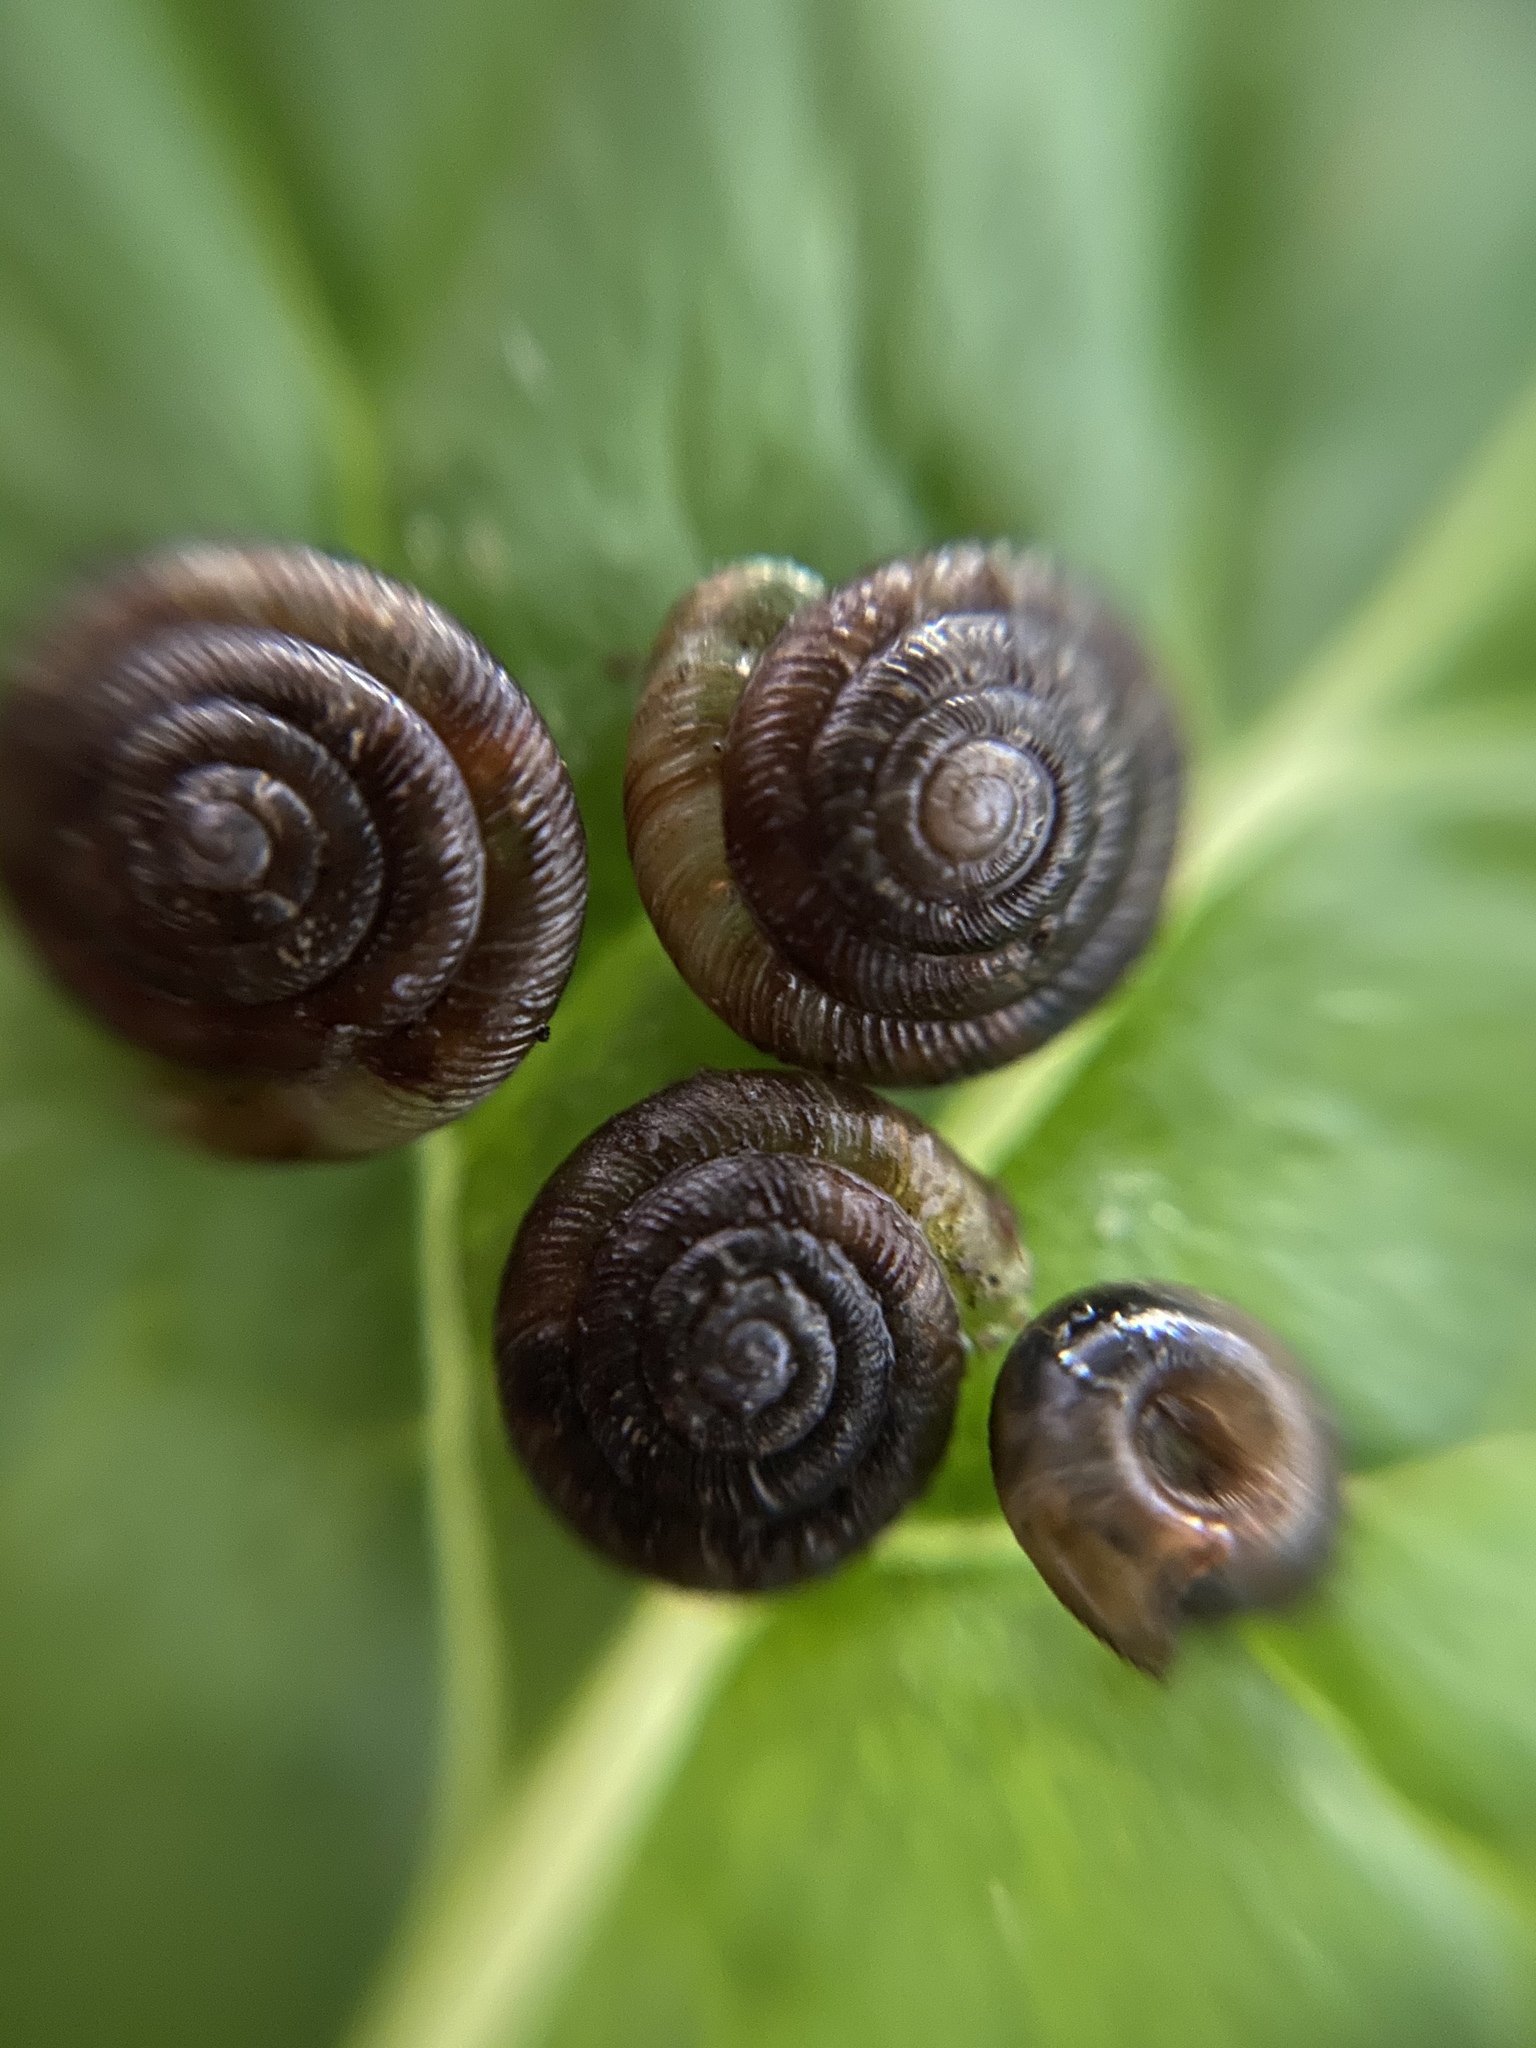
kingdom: Animalia
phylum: Mollusca
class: Gastropoda
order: Stylommatophora
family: Discidae
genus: Discus
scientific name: Discus rotundatus
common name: Rounded snail
